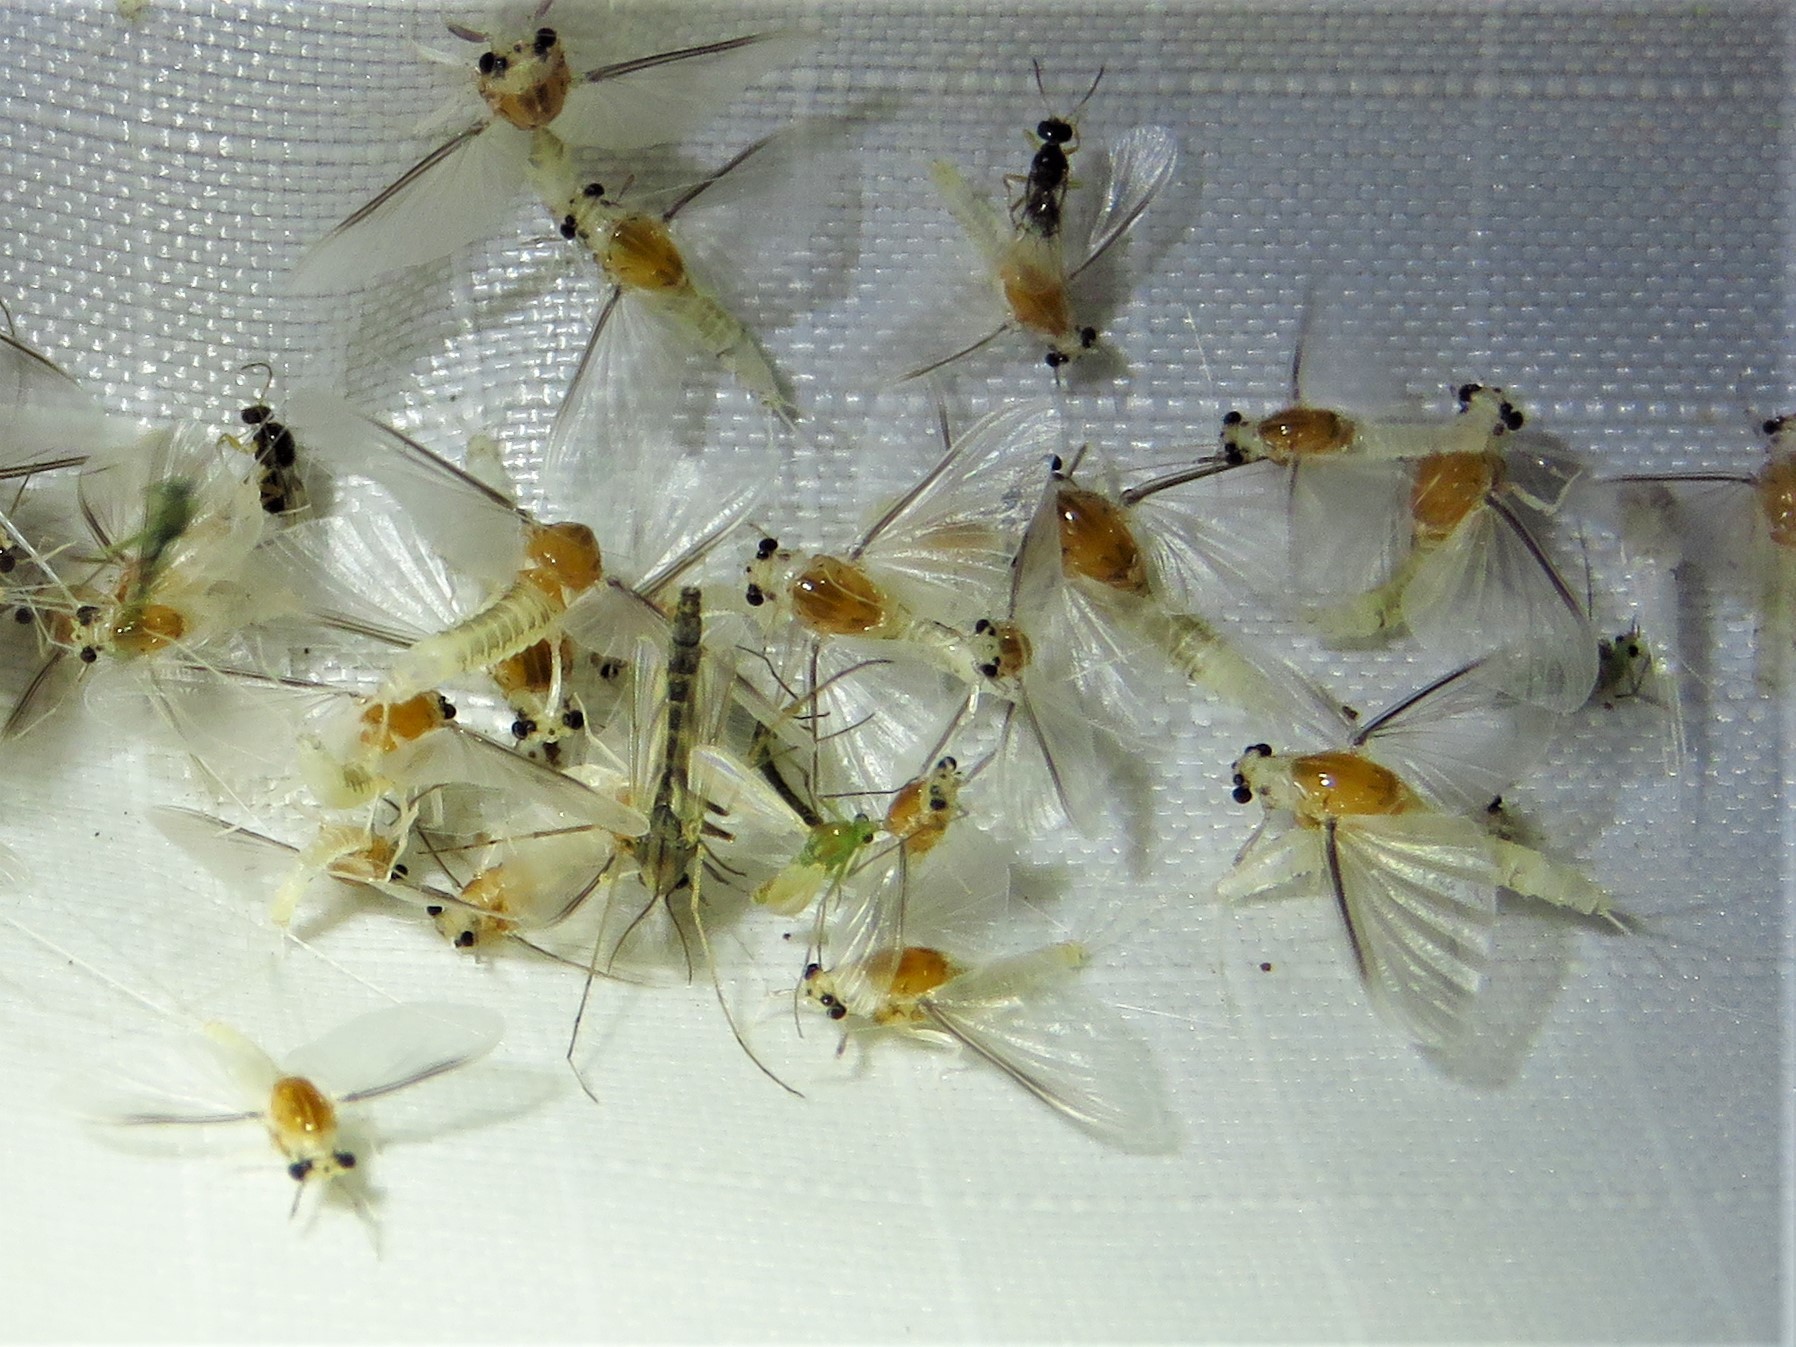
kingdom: Animalia
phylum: Arthropoda
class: Insecta
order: Ephemeroptera
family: Caenidae
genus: Caenis
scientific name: Caenis latipennis
